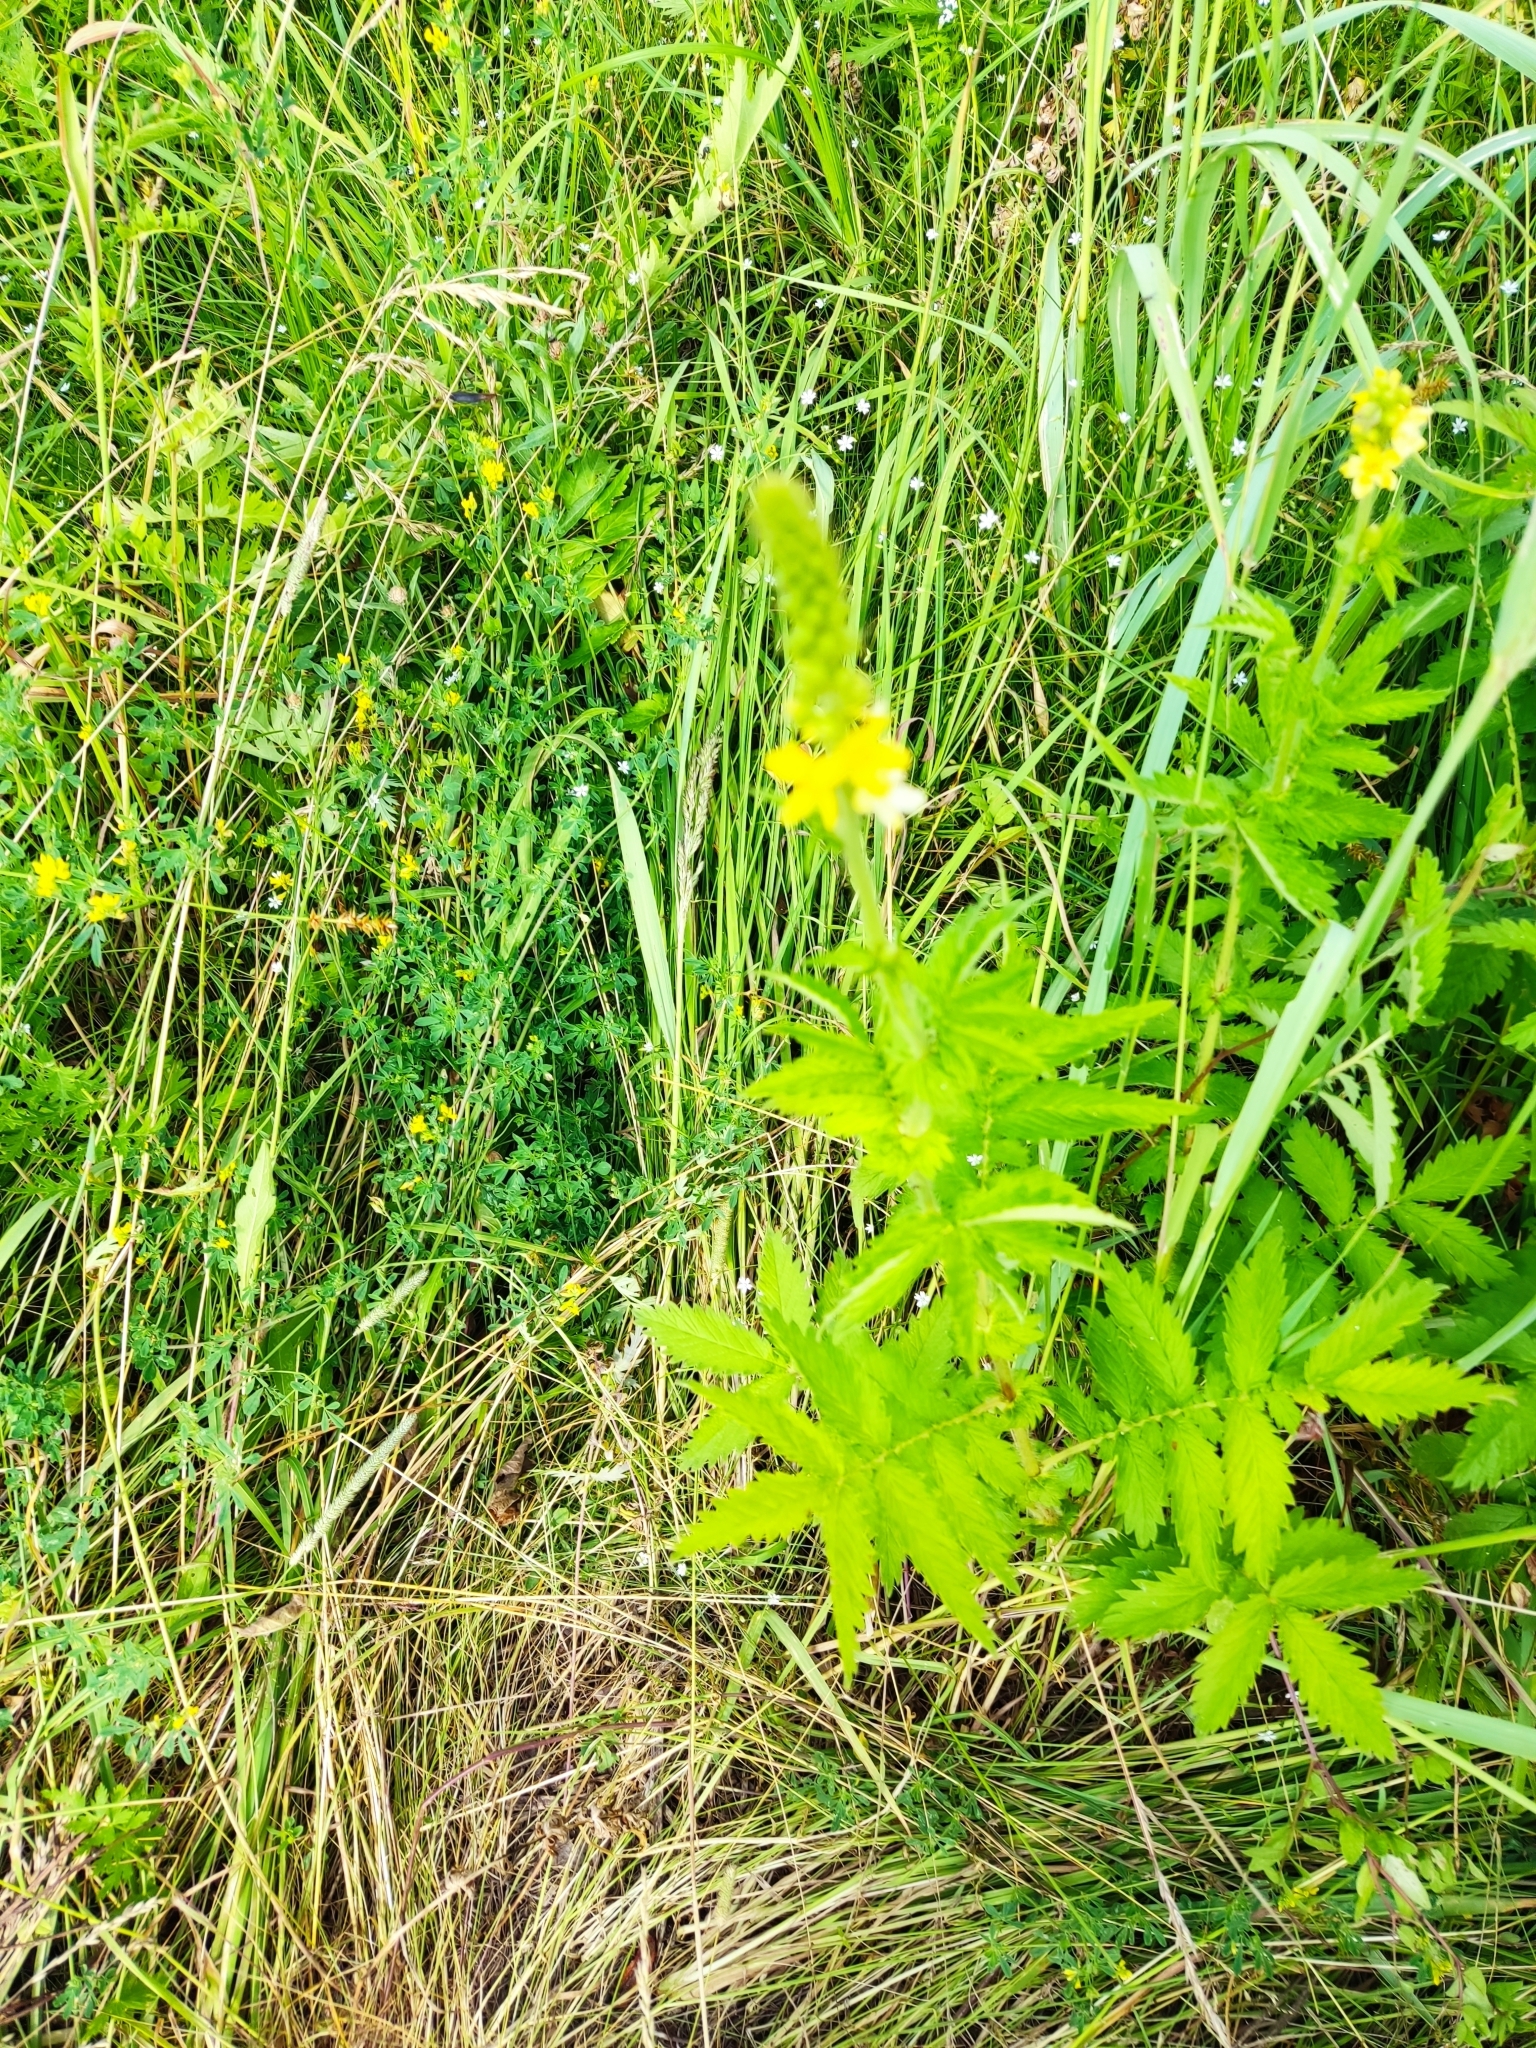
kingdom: Plantae
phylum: Tracheophyta
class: Magnoliopsida
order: Rosales
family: Rosaceae
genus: Agrimonia
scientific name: Agrimonia eupatoria
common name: Agrimony
